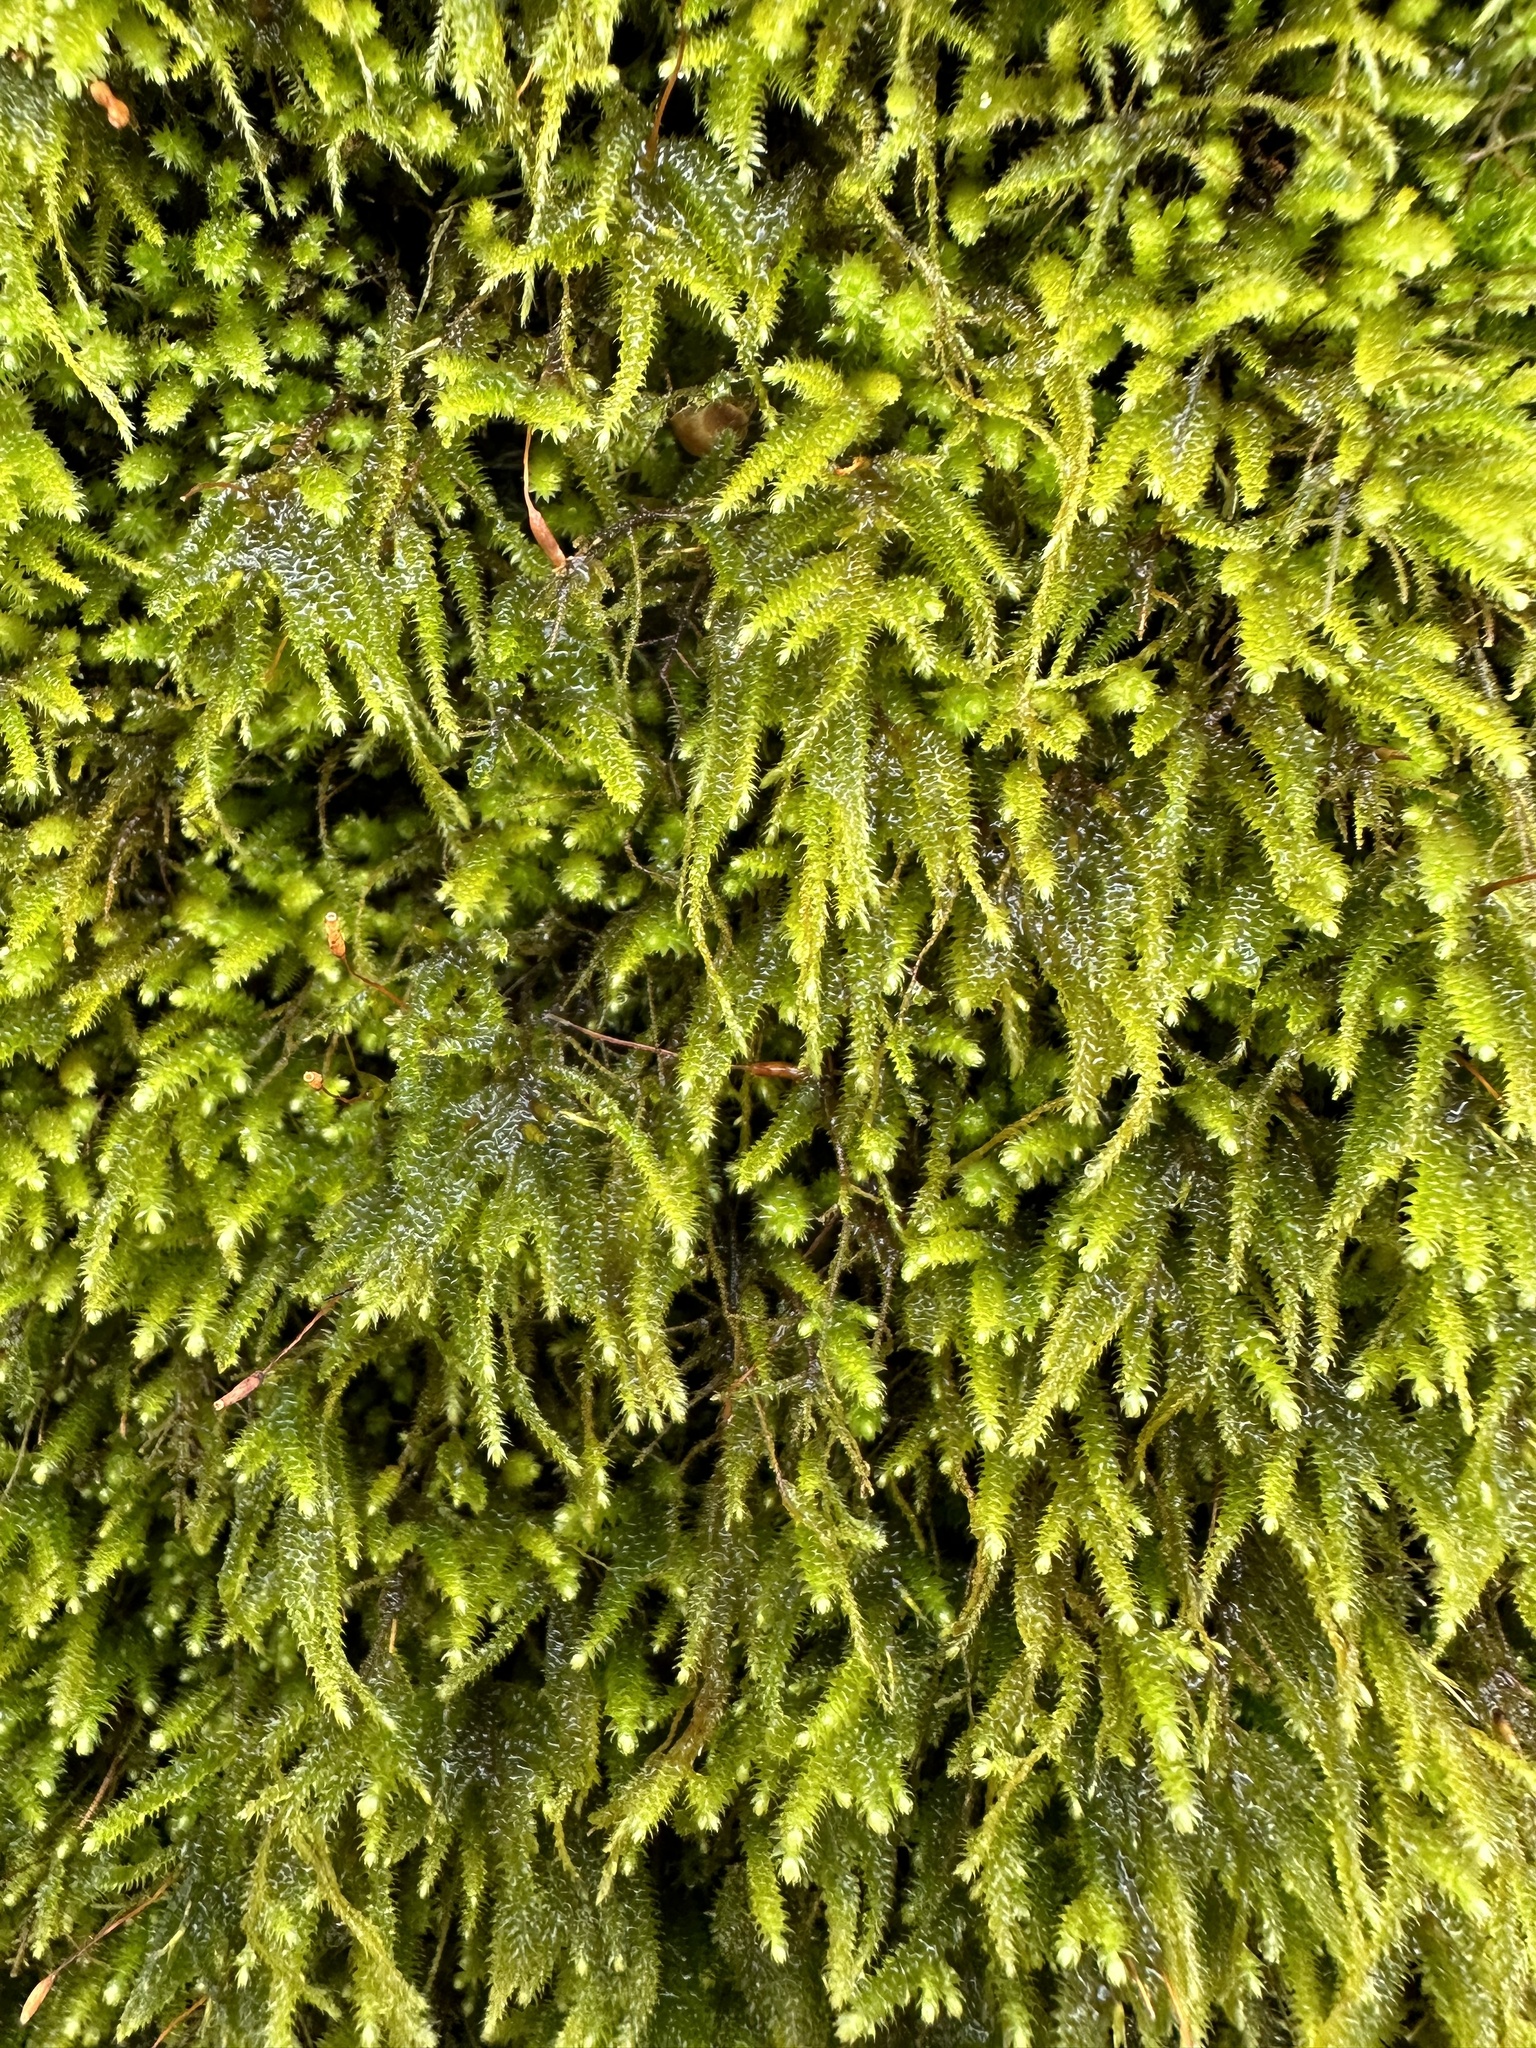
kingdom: Plantae
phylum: Bryophyta
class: Bryopsida
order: Hypnales
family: Lembophyllaceae
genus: Nogopterium
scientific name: Nogopterium gracile
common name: Bird's-foot wing-moss
